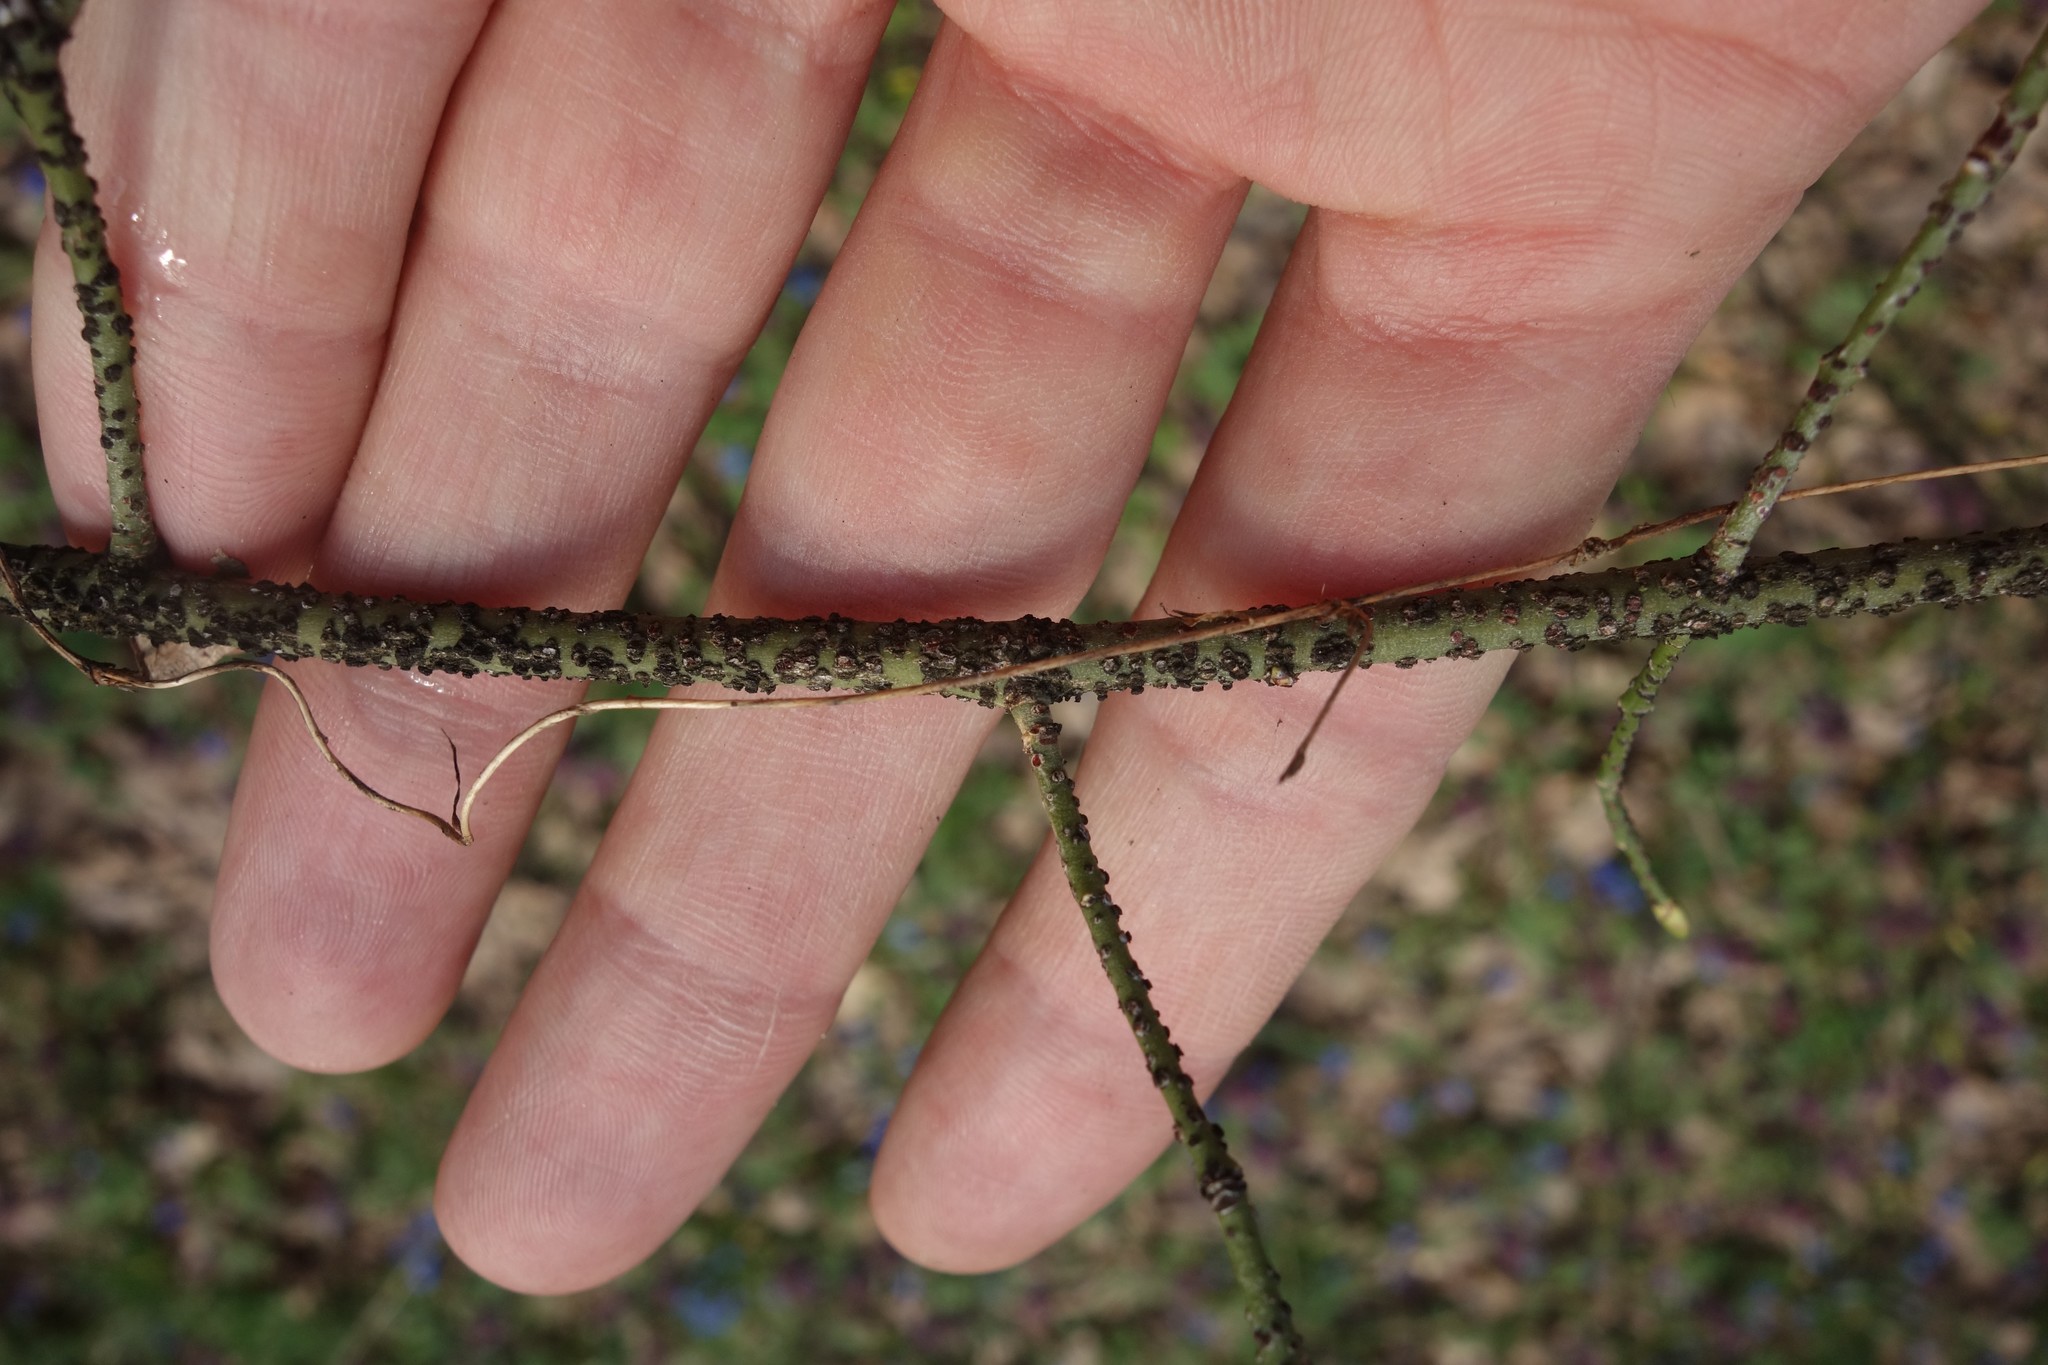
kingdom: Plantae
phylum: Tracheophyta
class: Magnoliopsida
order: Celastrales
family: Celastraceae
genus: Euonymus
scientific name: Euonymus verrucosus
